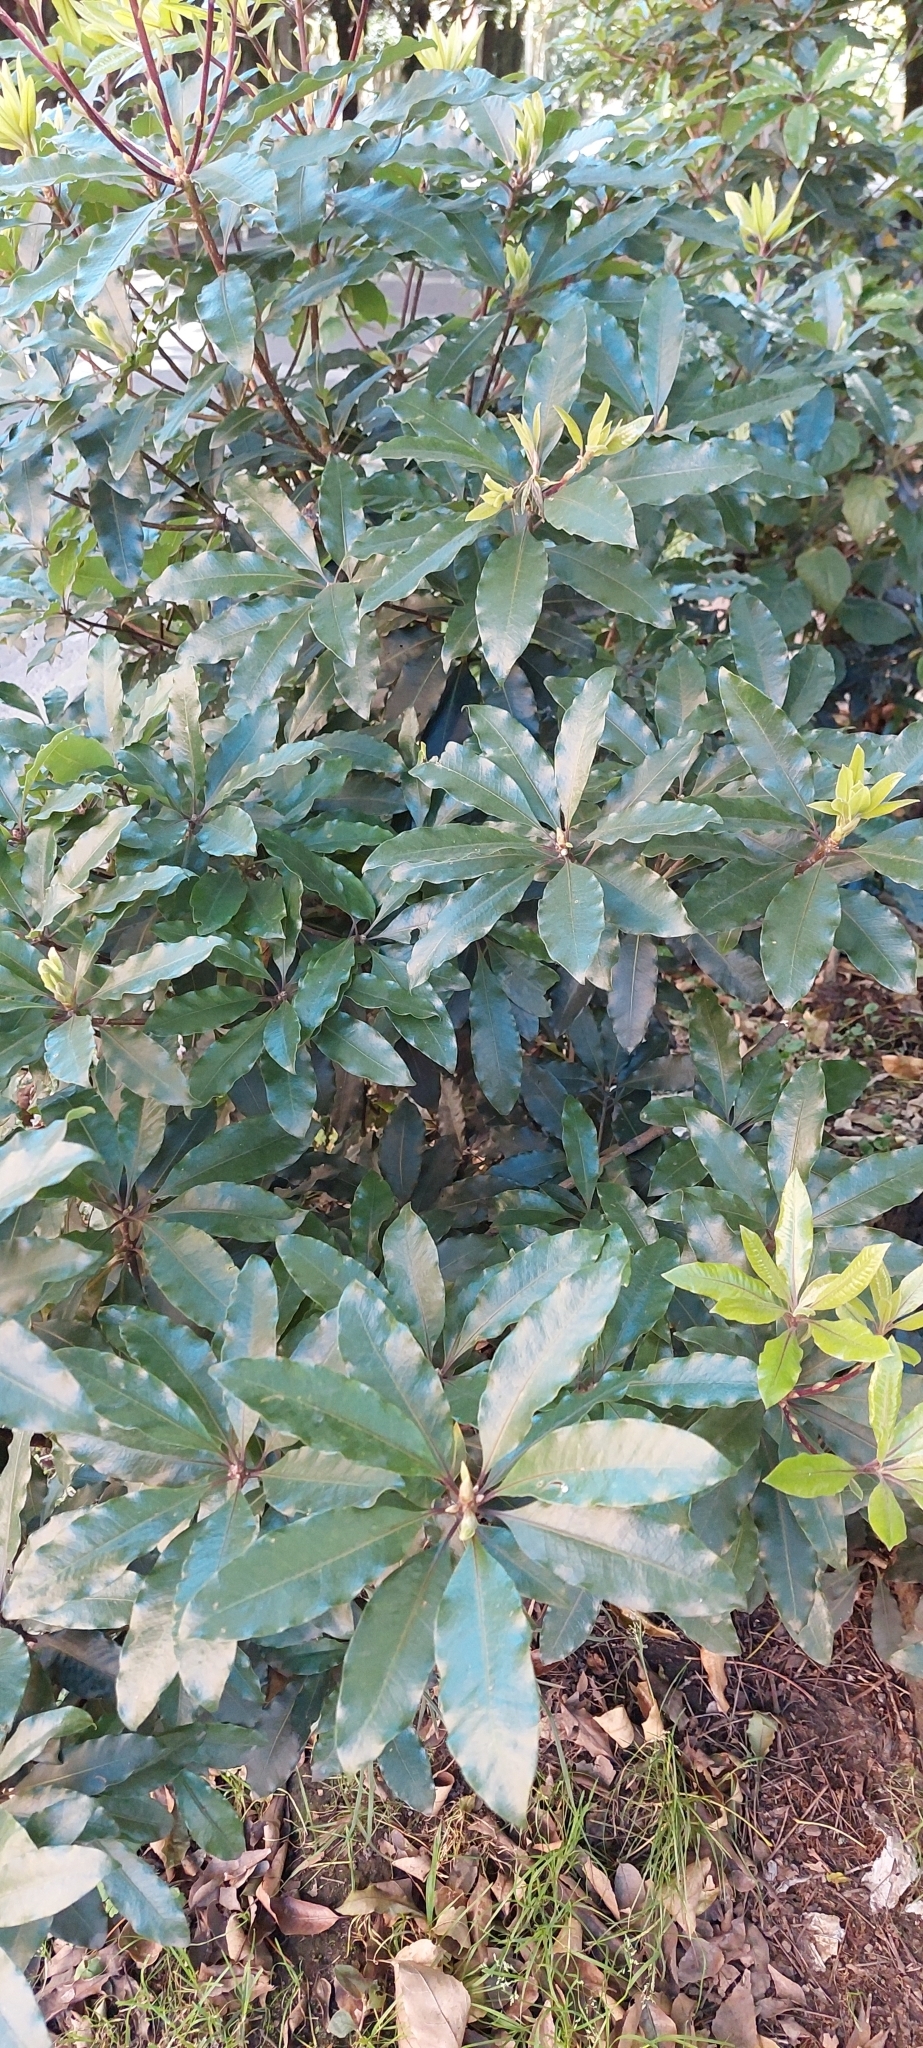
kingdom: Plantae
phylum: Tracheophyta
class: Magnoliopsida
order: Apiales
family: Pittosporaceae
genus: Pittosporum
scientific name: Pittosporum undulatum
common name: Australian cheesewood
